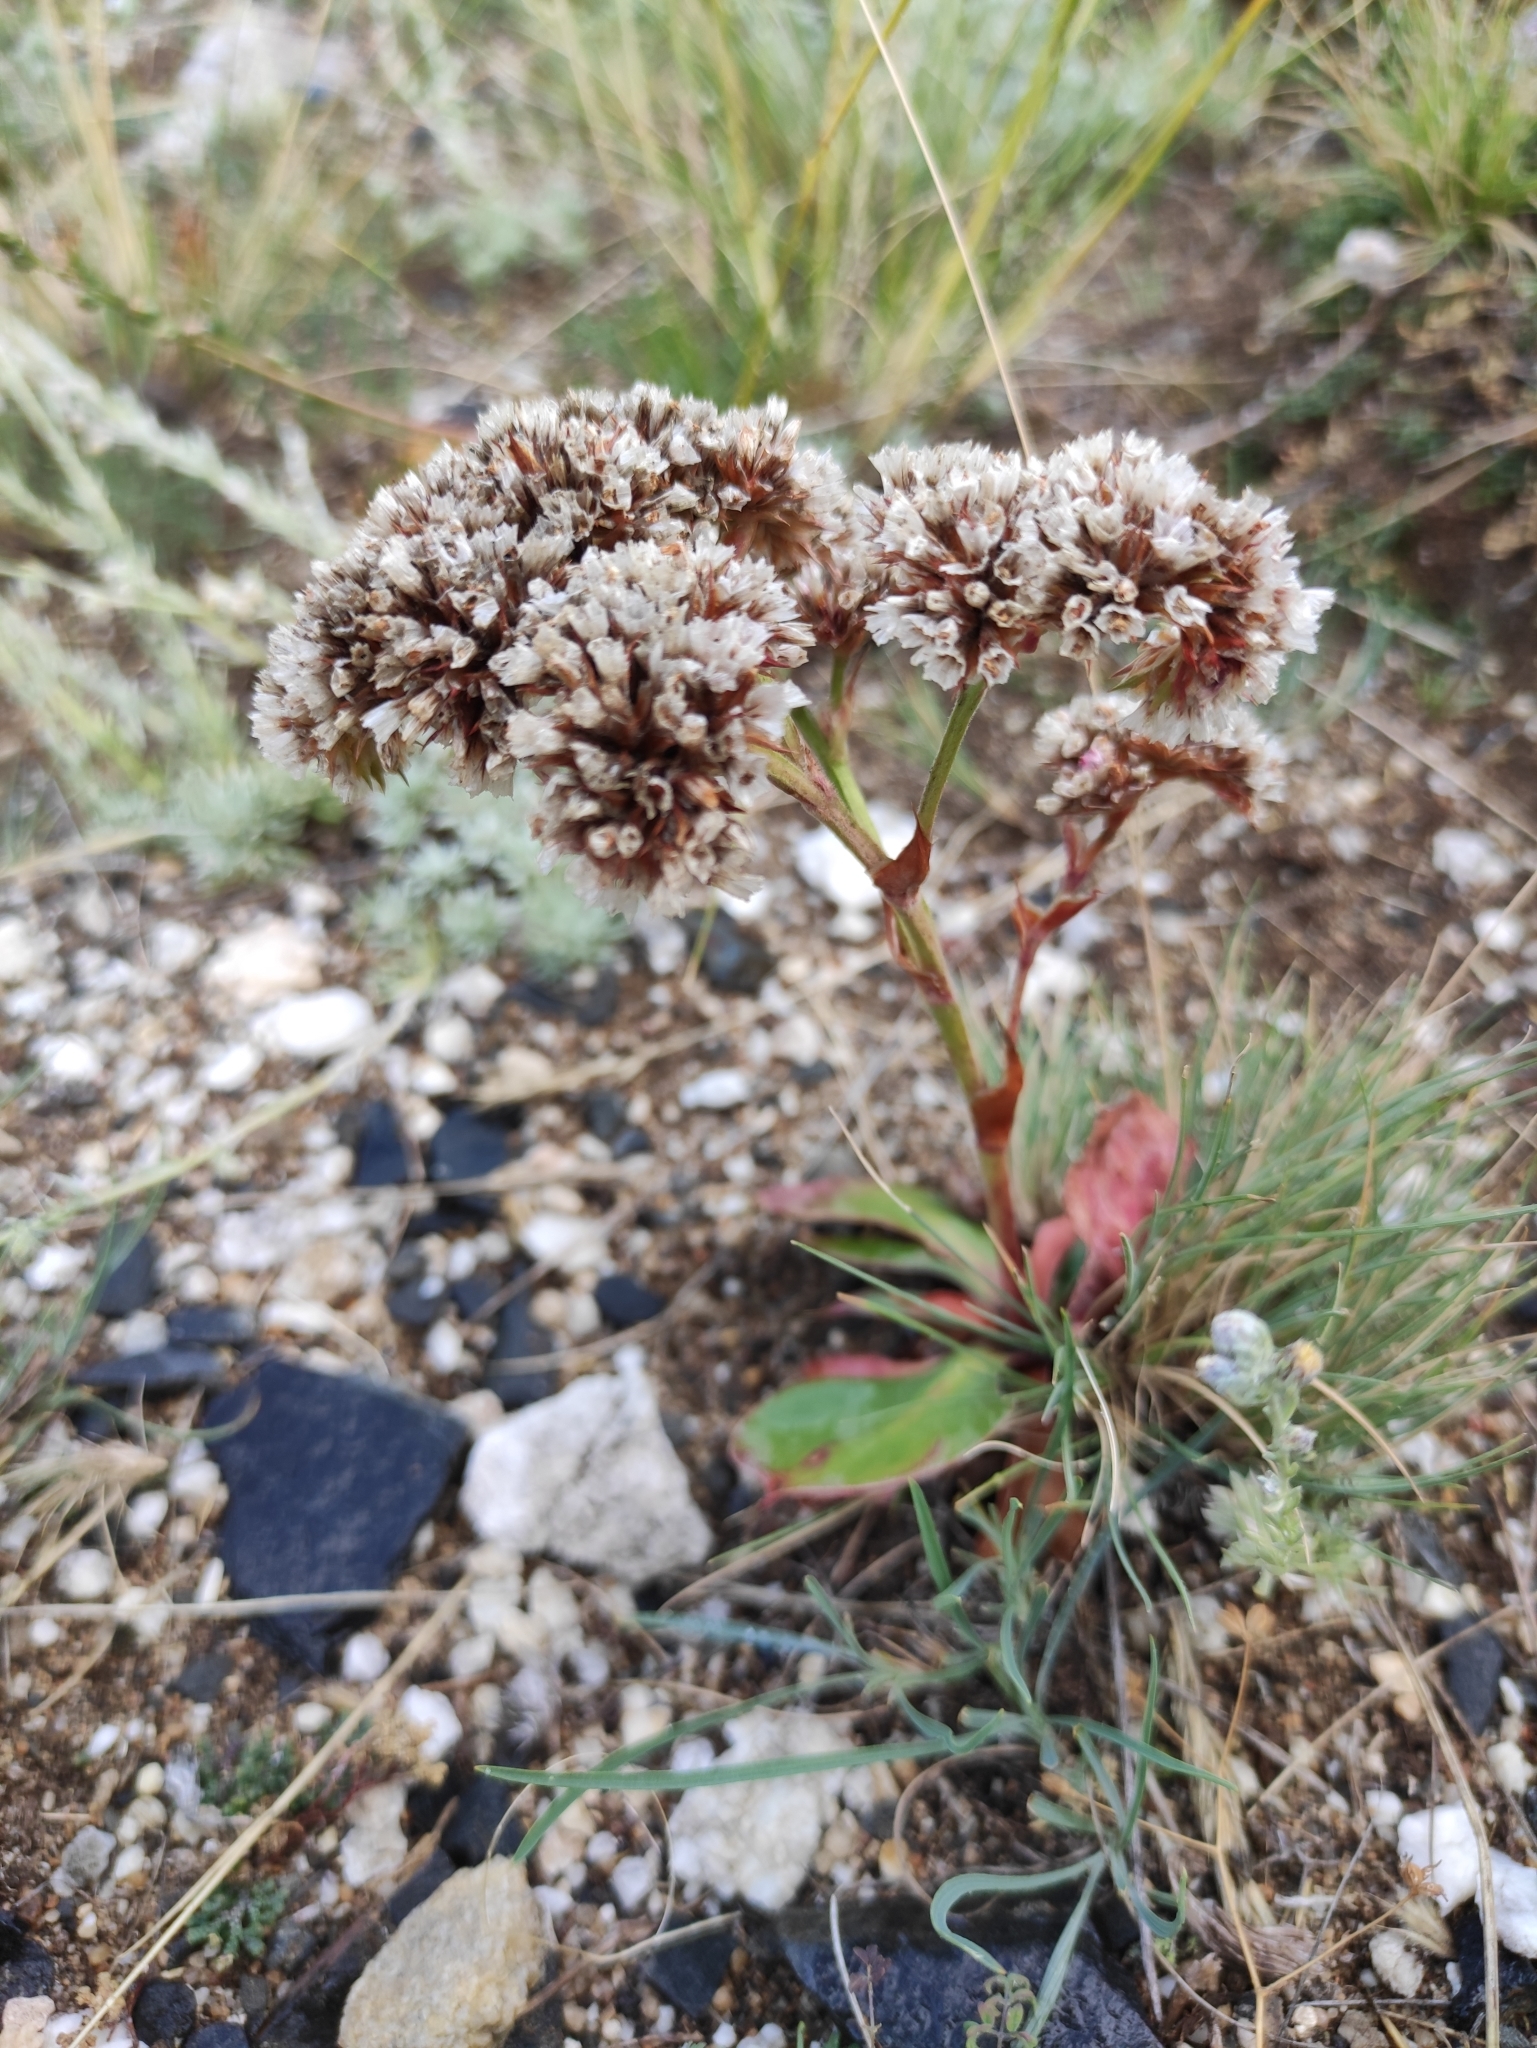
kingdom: Plantae
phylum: Tracheophyta
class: Magnoliopsida
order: Caryophyllales
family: Plumbaginaceae
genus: Goniolimon
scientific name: Goniolimon speciosum
